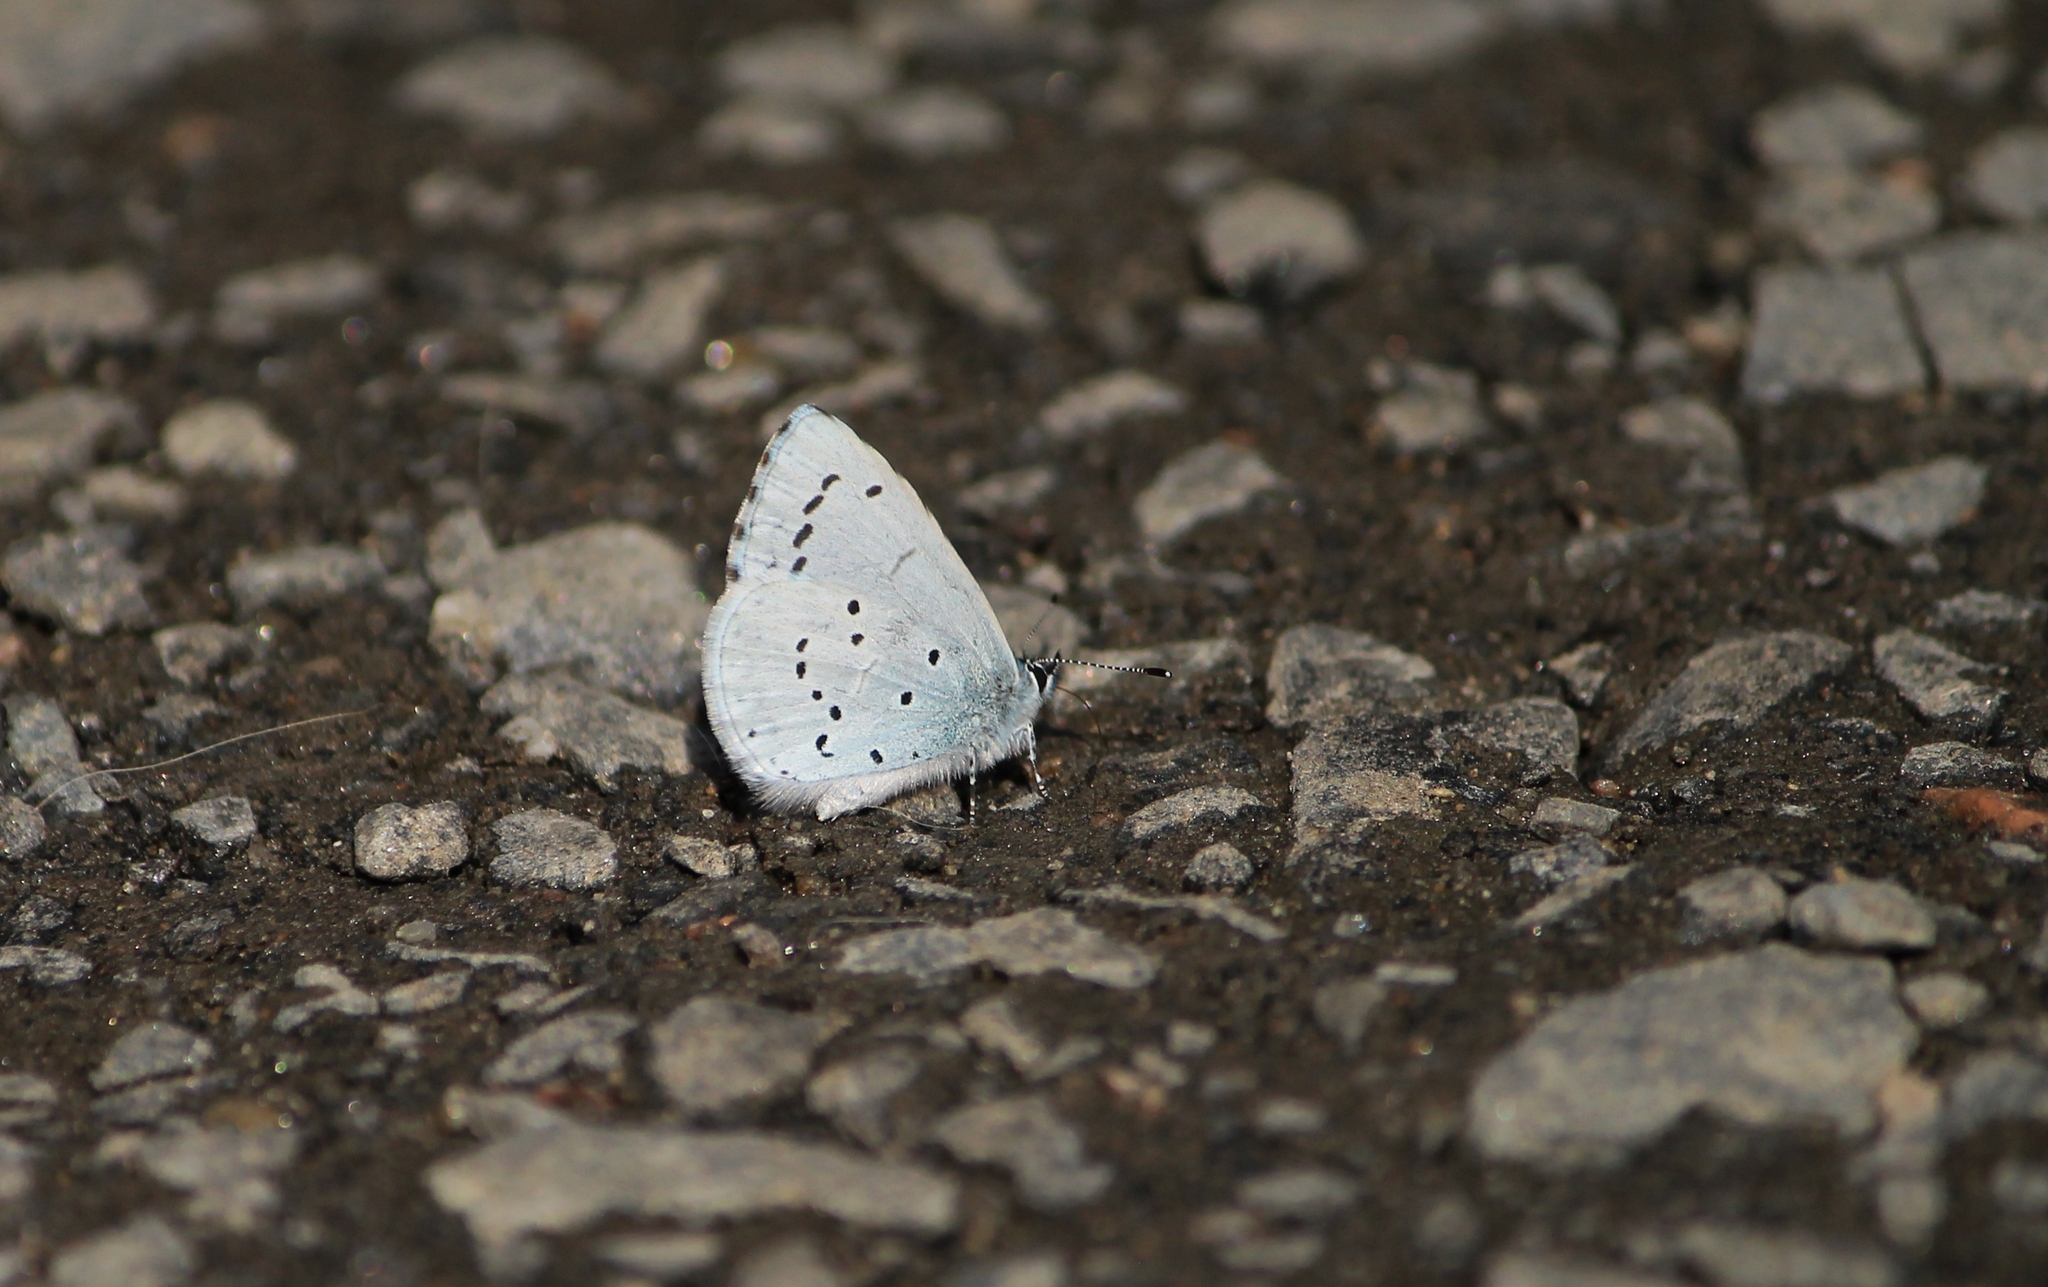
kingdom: Animalia
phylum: Arthropoda
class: Insecta
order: Lepidoptera
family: Lycaenidae
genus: Celastrina
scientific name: Celastrina argiolus
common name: Holly blue
